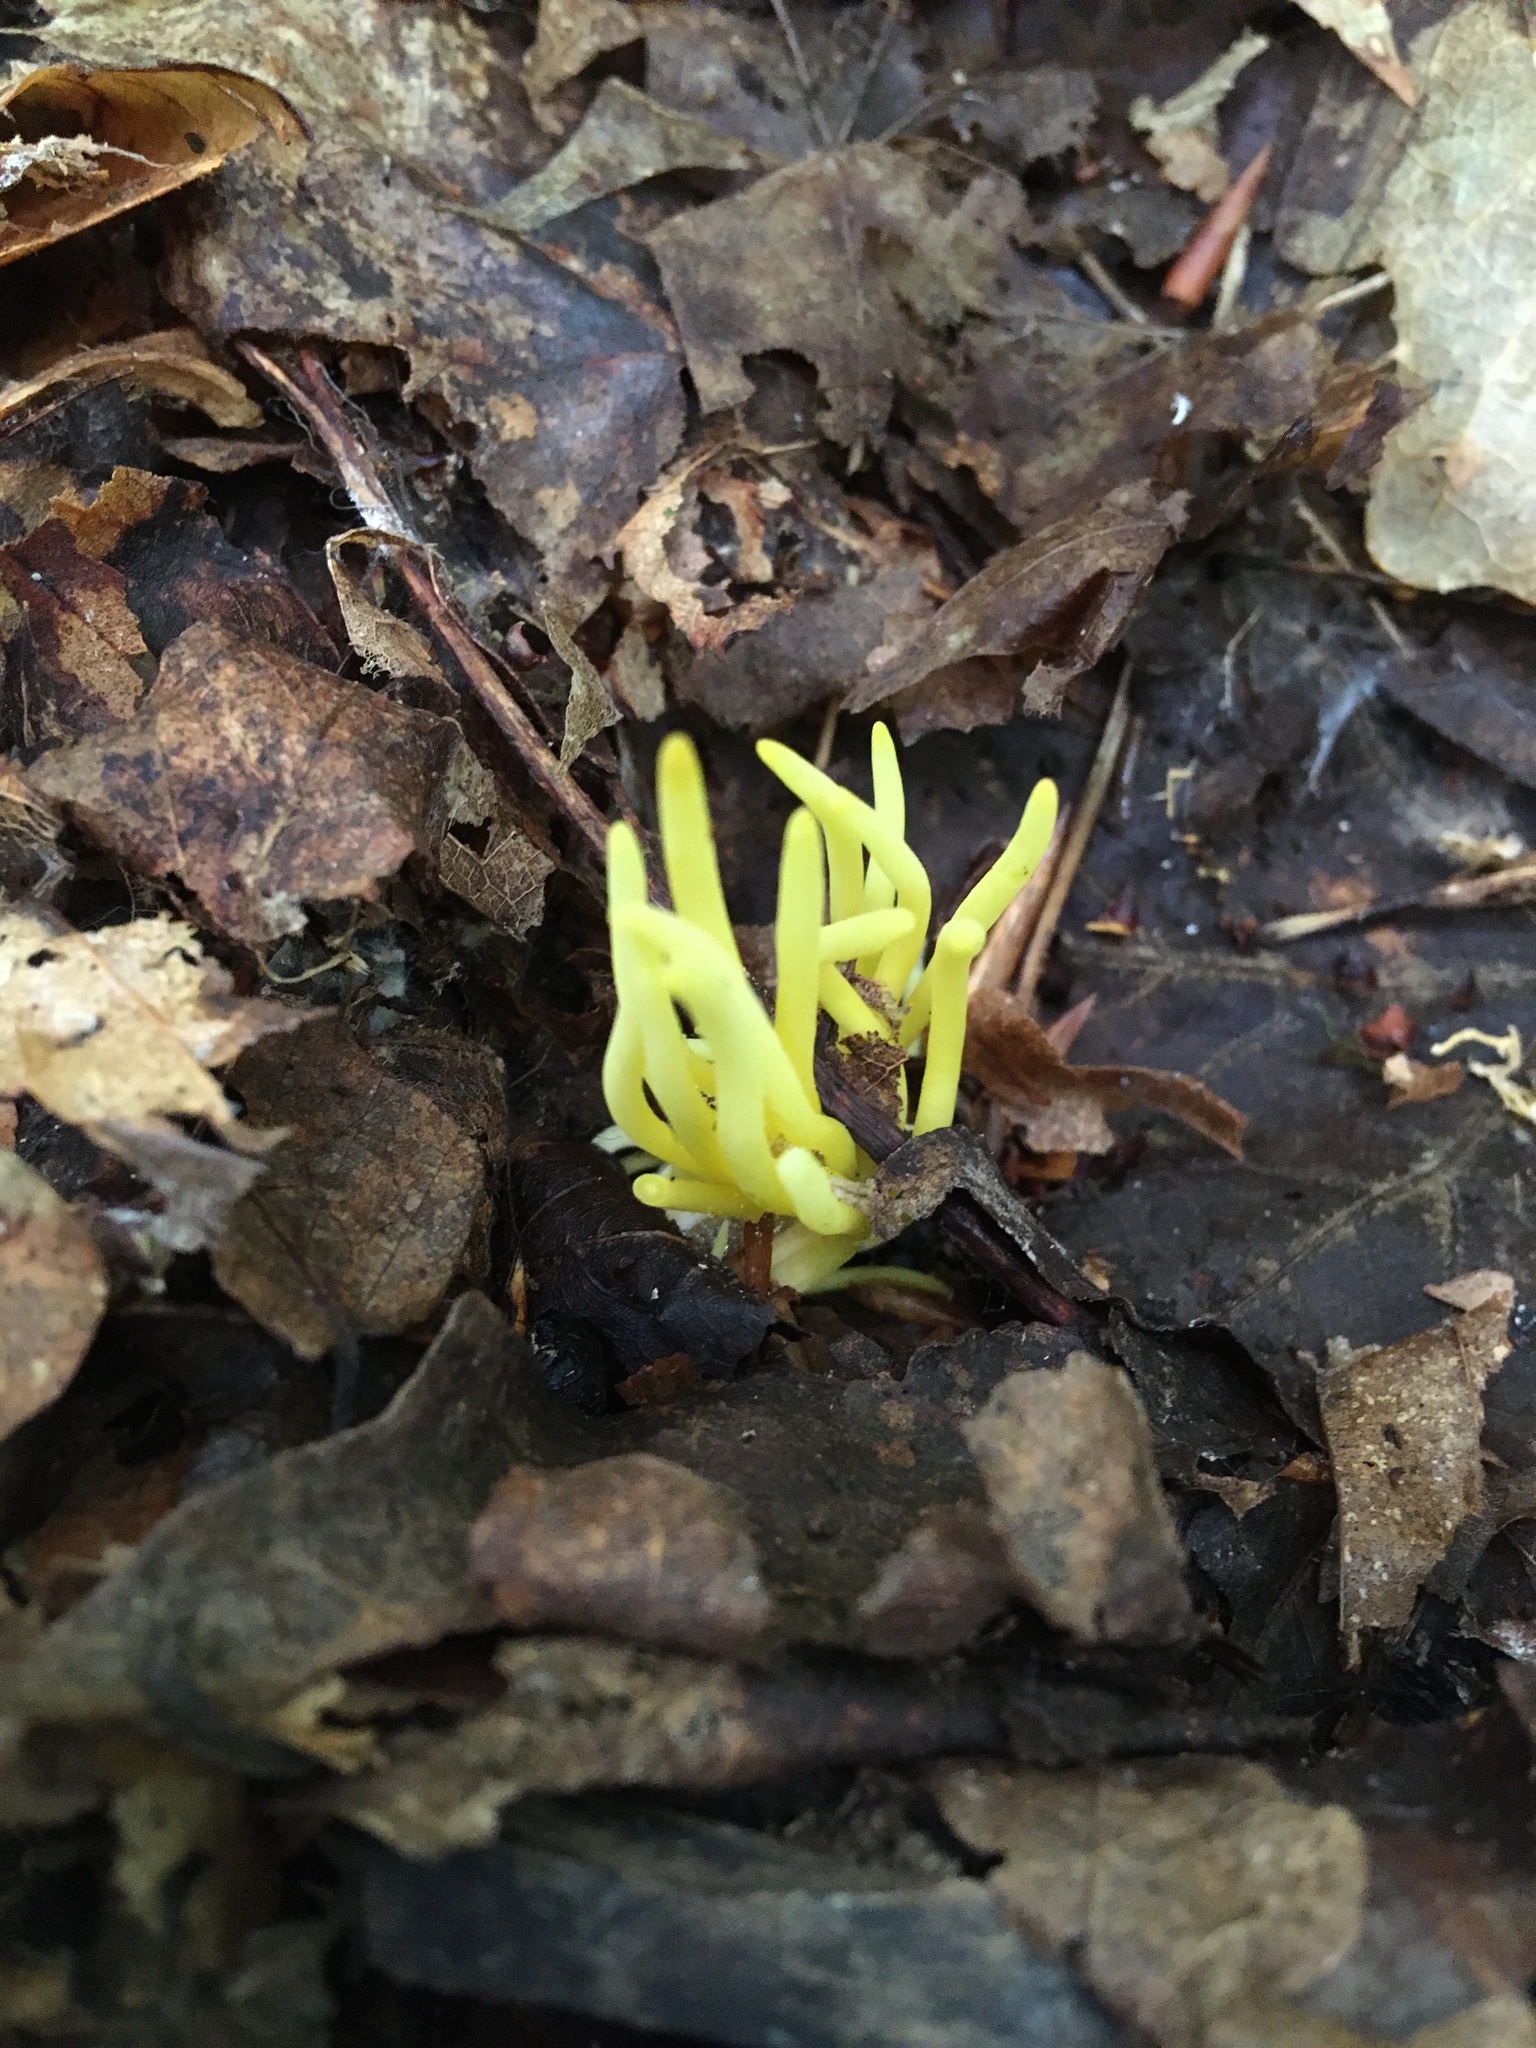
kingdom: Fungi
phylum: Basidiomycota
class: Agaricomycetes
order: Agaricales
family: Clavariaceae
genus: Clavulinopsis
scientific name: Clavulinopsis fusiformis
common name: Golden spindles
